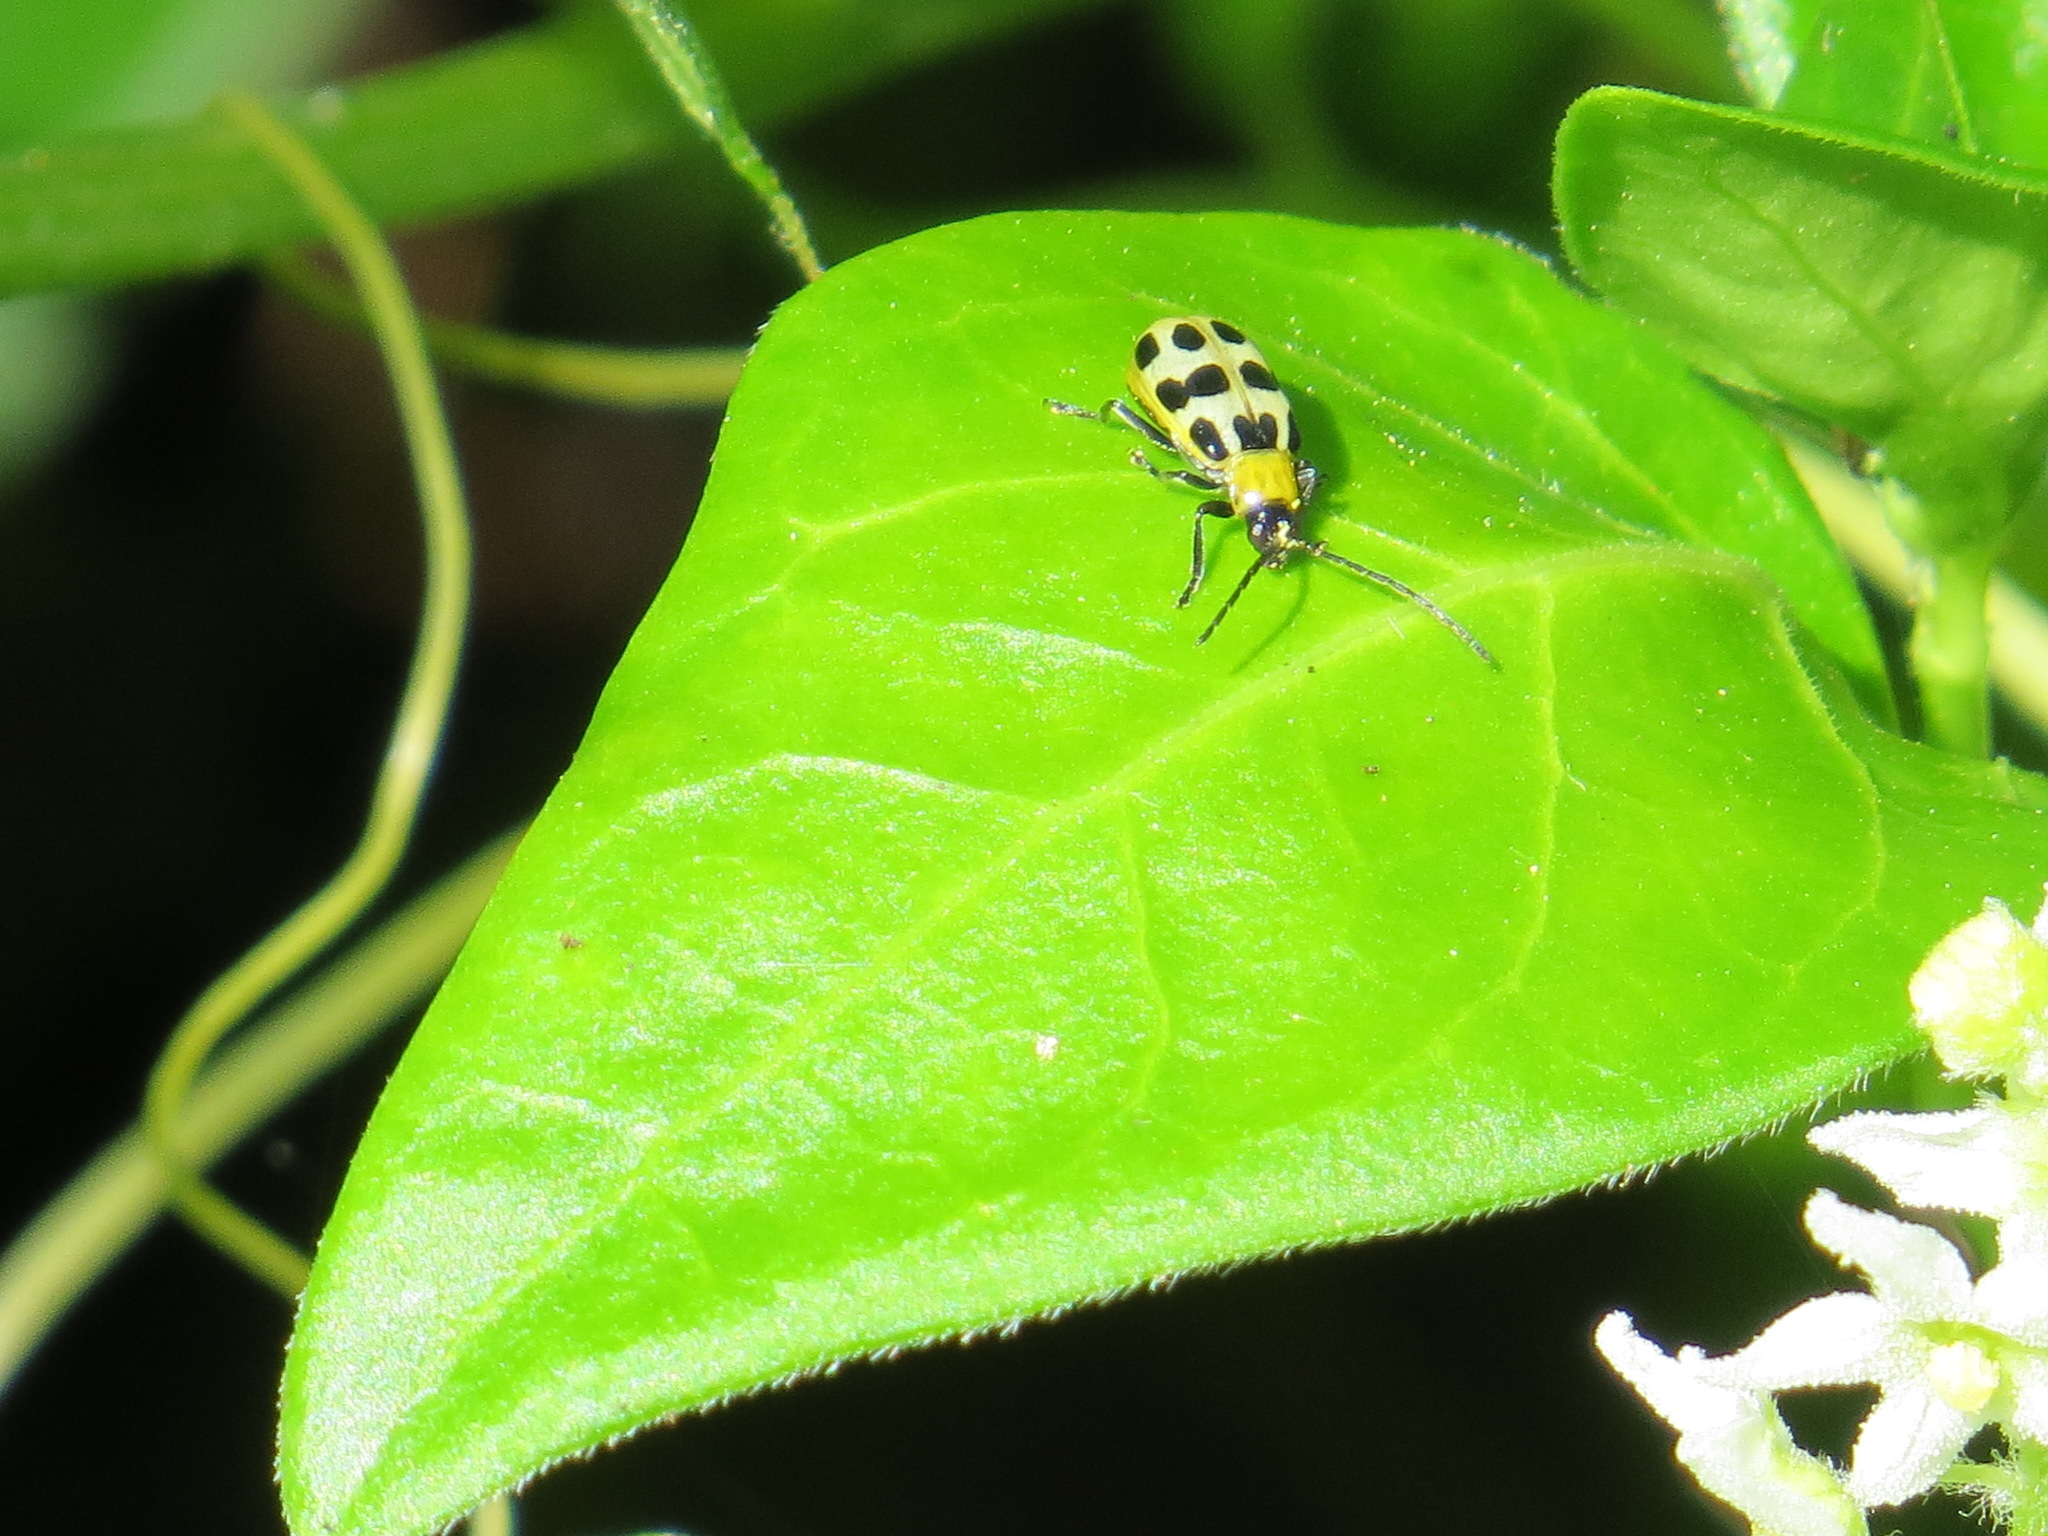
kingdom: Animalia
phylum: Arthropoda
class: Insecta
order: Coleoptera
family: Chrysomelidae
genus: Diabrotica
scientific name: Diabrotica undecimpunctata
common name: Spotted cucumber beetle
